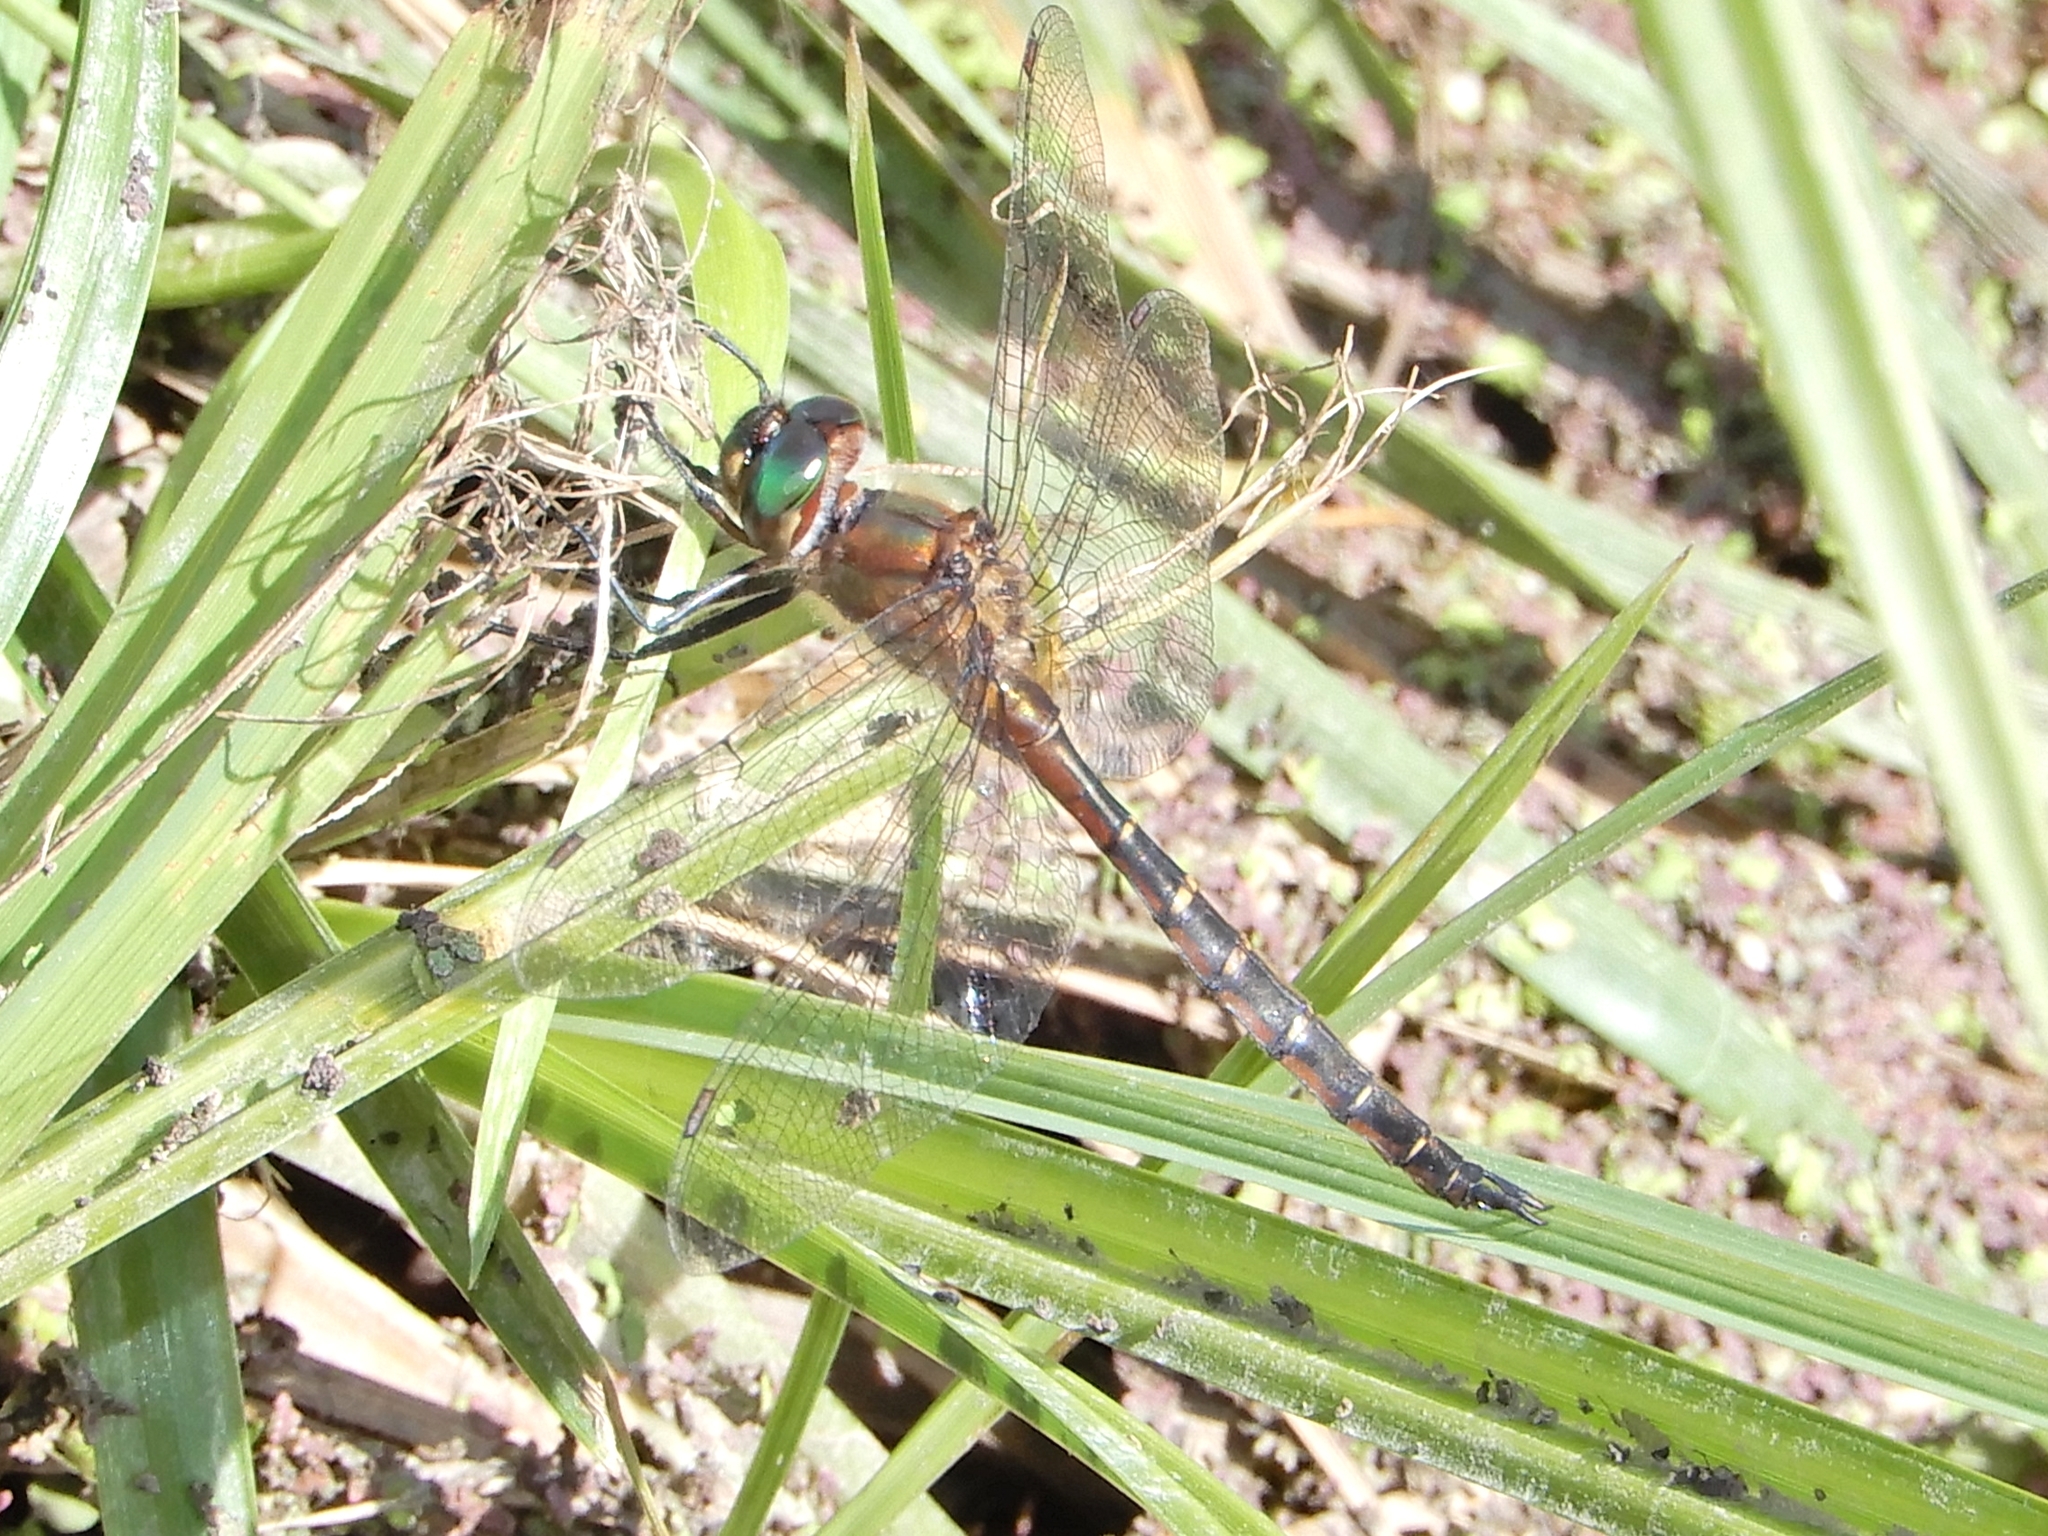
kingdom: Animalia
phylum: Arthropoda
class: Insecta
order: Odonata
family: Corduliidae
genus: Procordulia
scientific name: Procordulia smithii
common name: Ranger dragonfly
